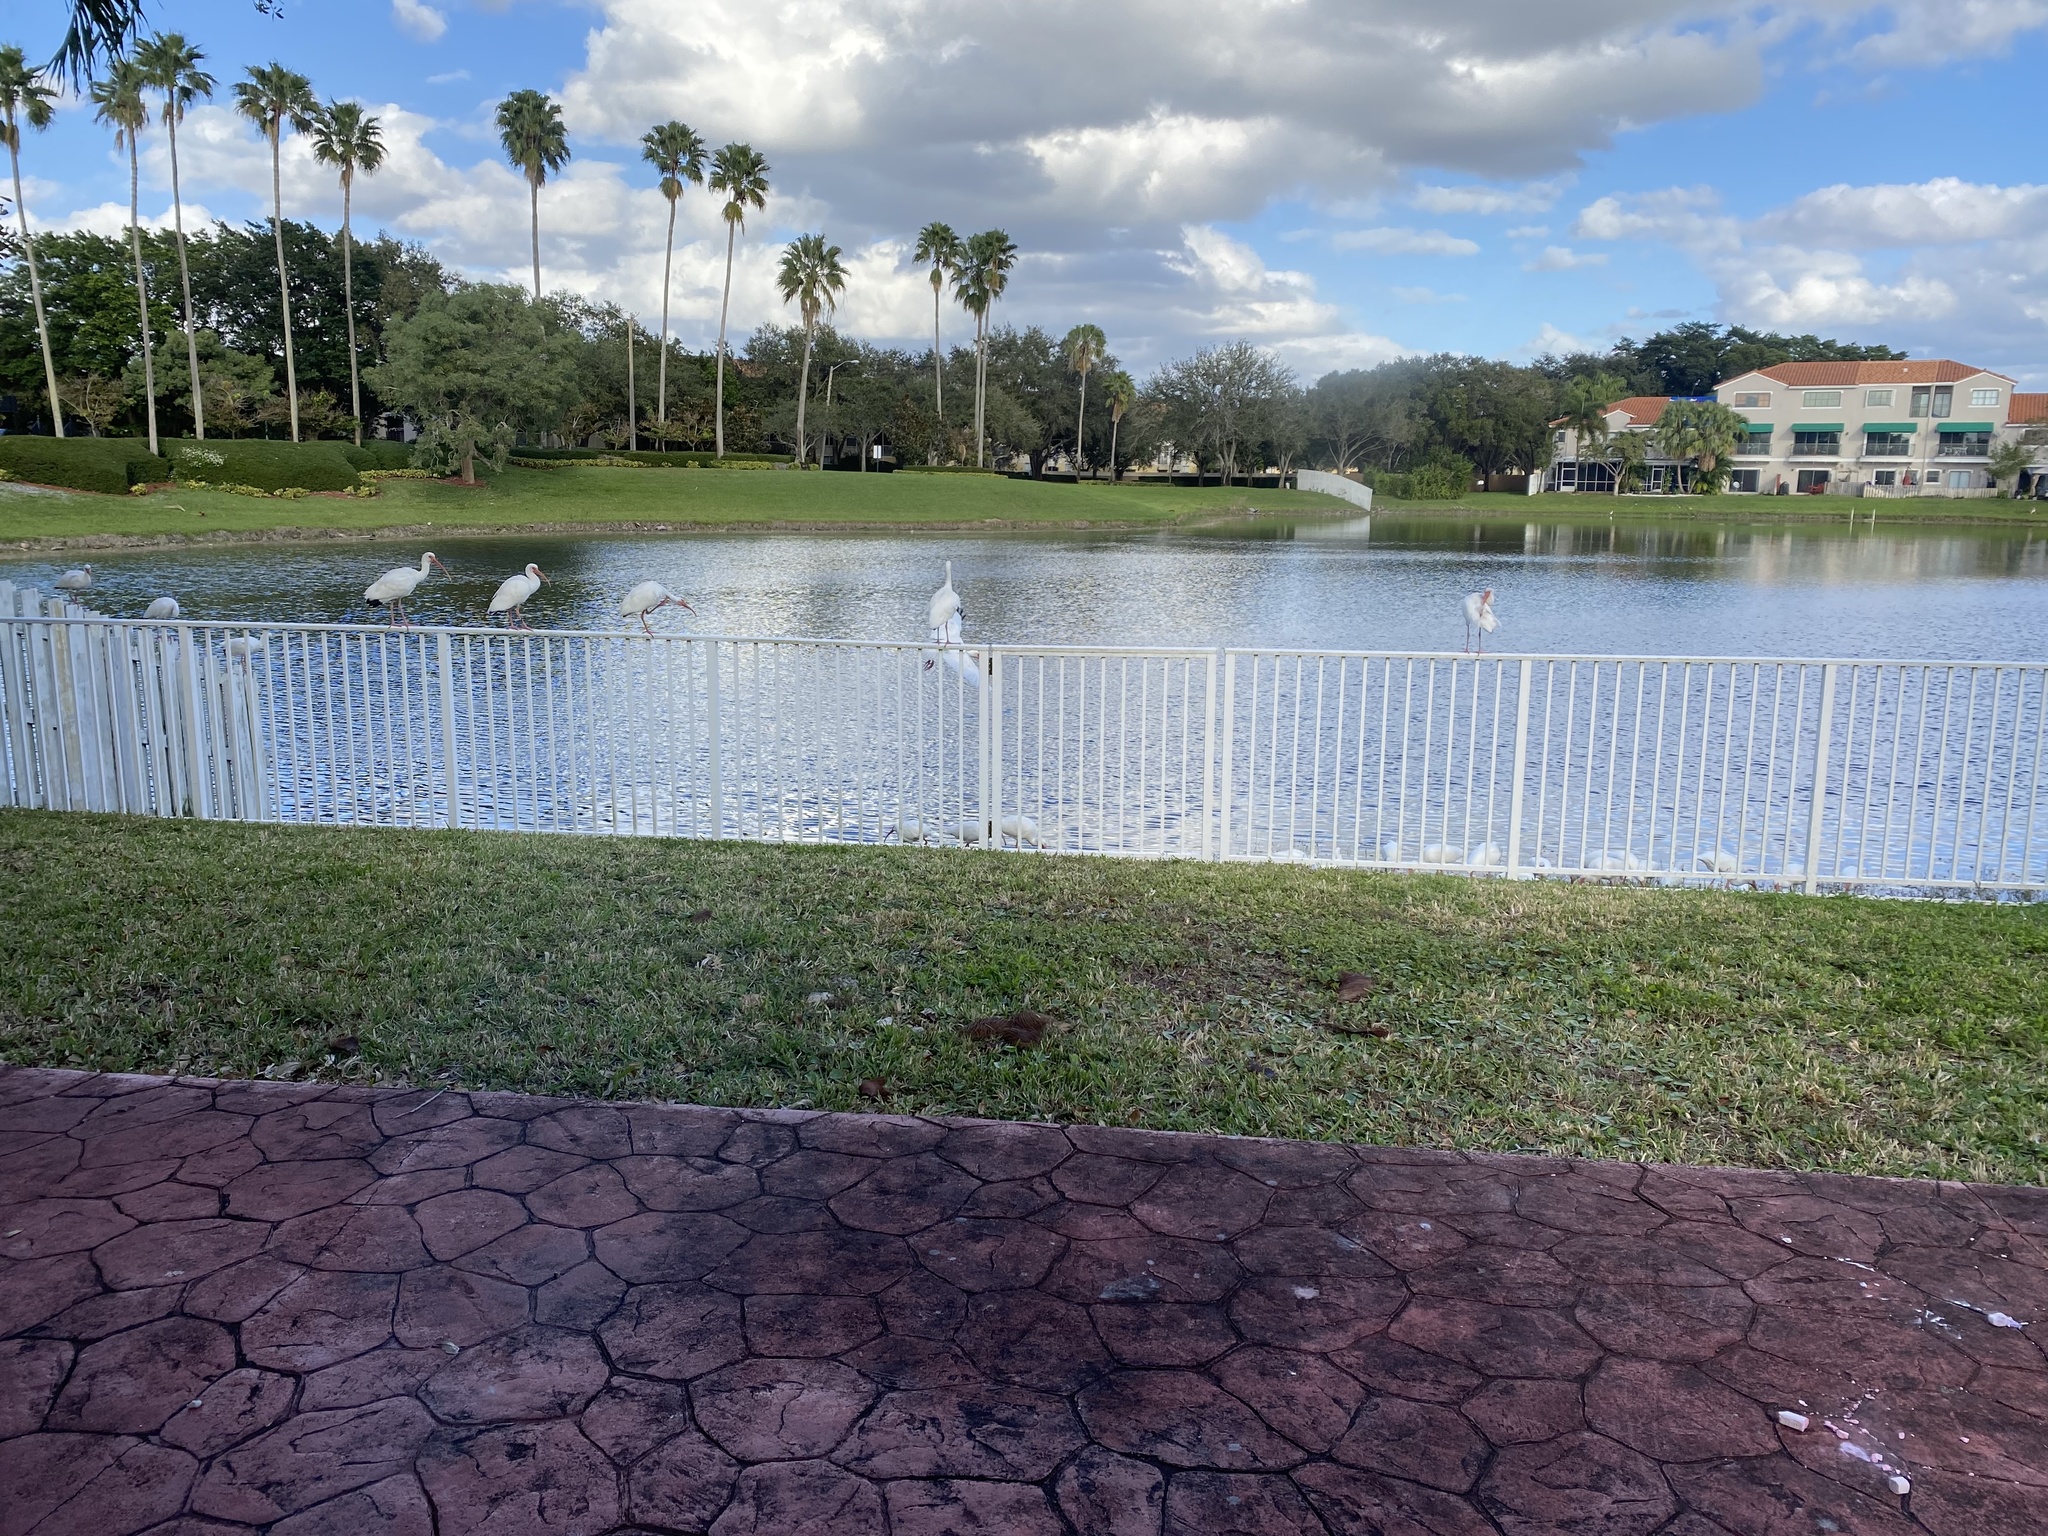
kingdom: Animalia
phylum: Chordata
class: Aves
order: Pelecaniformes
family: Threskiornithidae
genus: Eudocimus
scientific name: Eudocimus albus
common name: White ibis
